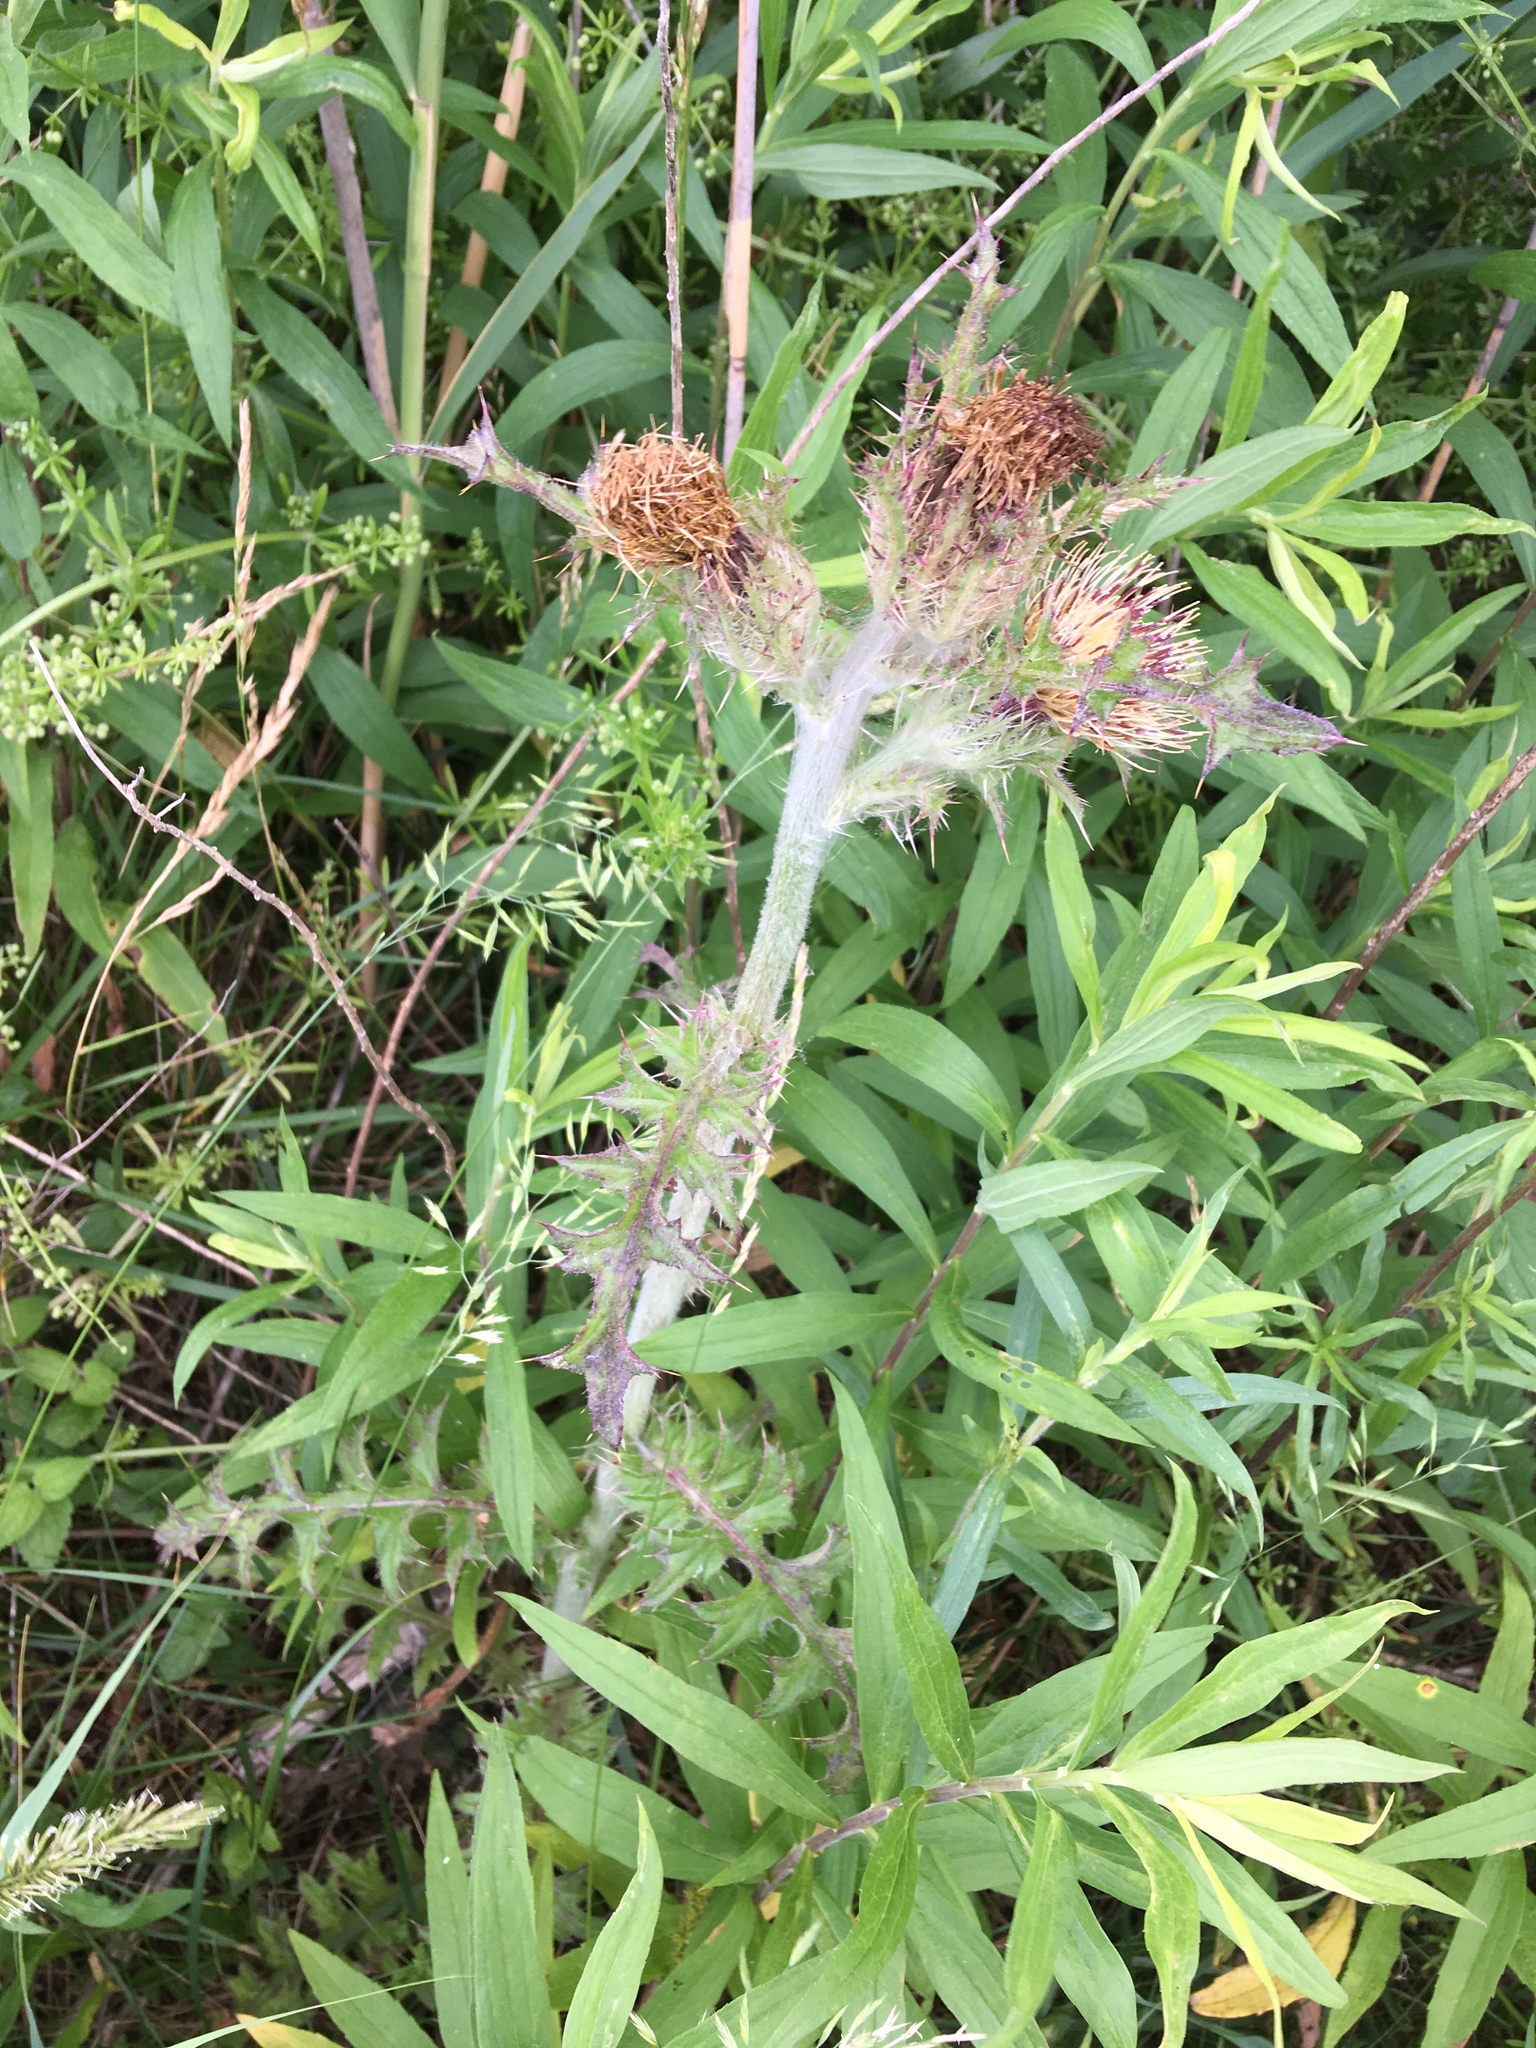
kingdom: Plantae
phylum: Tracheophyta
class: Magnoliopsida
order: Asterales
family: Asteraceae
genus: Cirsium
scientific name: Cirsium horridulum
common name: Bristly thistle
